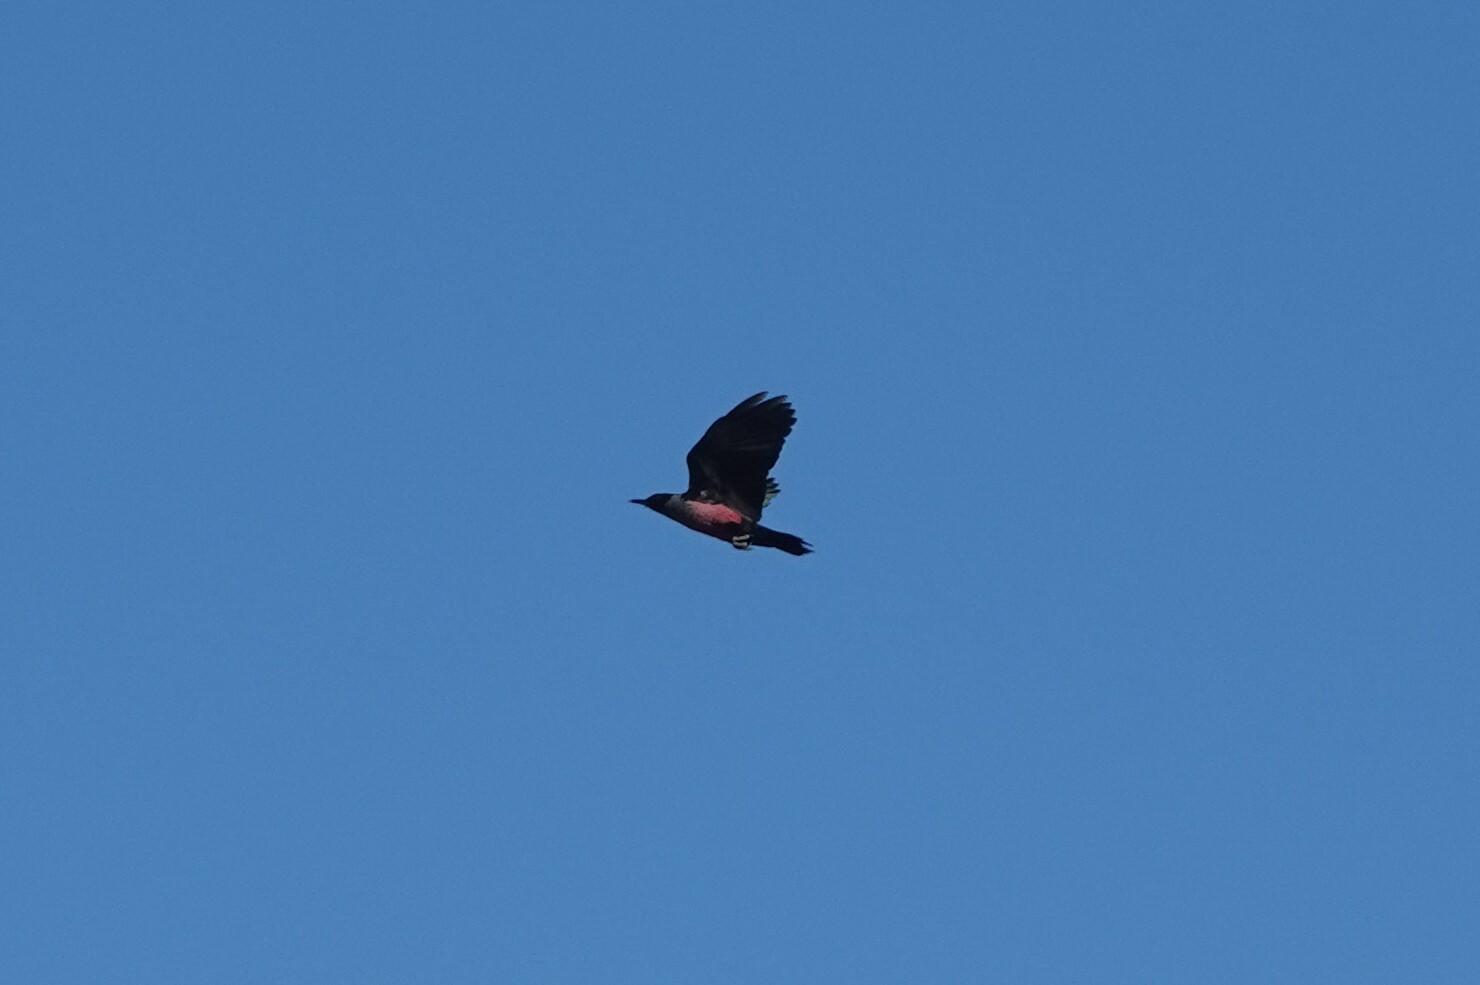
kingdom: Animalia
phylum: Chordata
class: Aves
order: Piciformes
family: Picidae
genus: Melanerpes
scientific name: Melanerpes lewis
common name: Lewis's woodpecker
